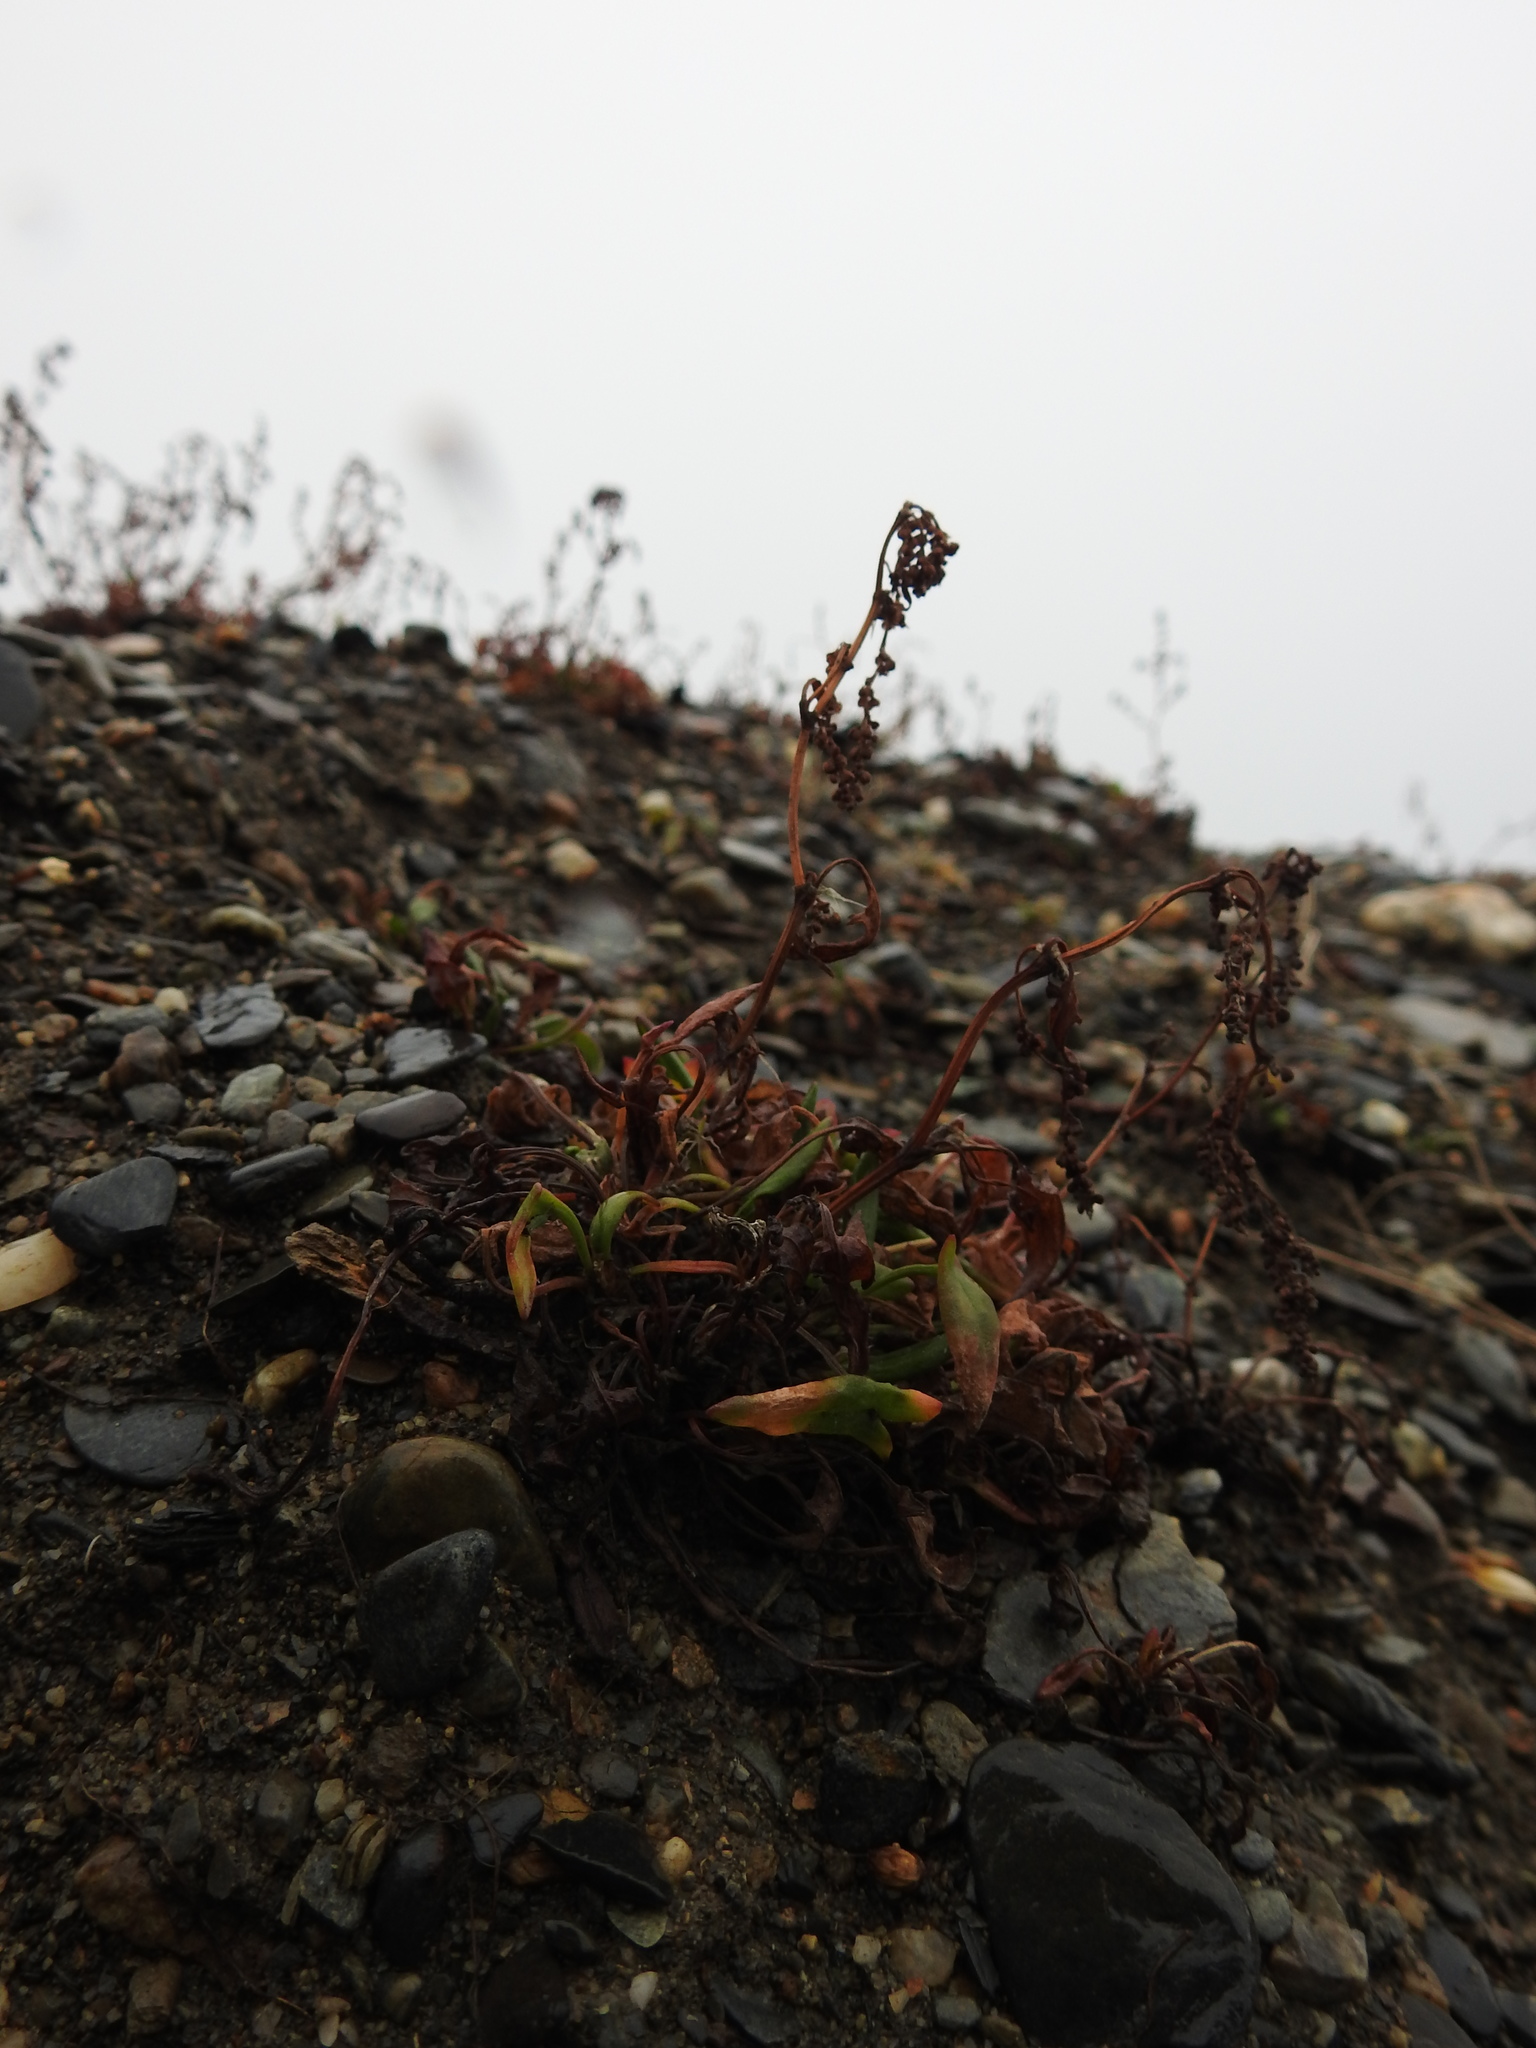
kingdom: Plantae
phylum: Tracheophyta
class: Magnoliopsida
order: Caryophyllales
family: Polygonaceae
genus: Rumex
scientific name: Rumex acetosella
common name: Common sheep sorrel
